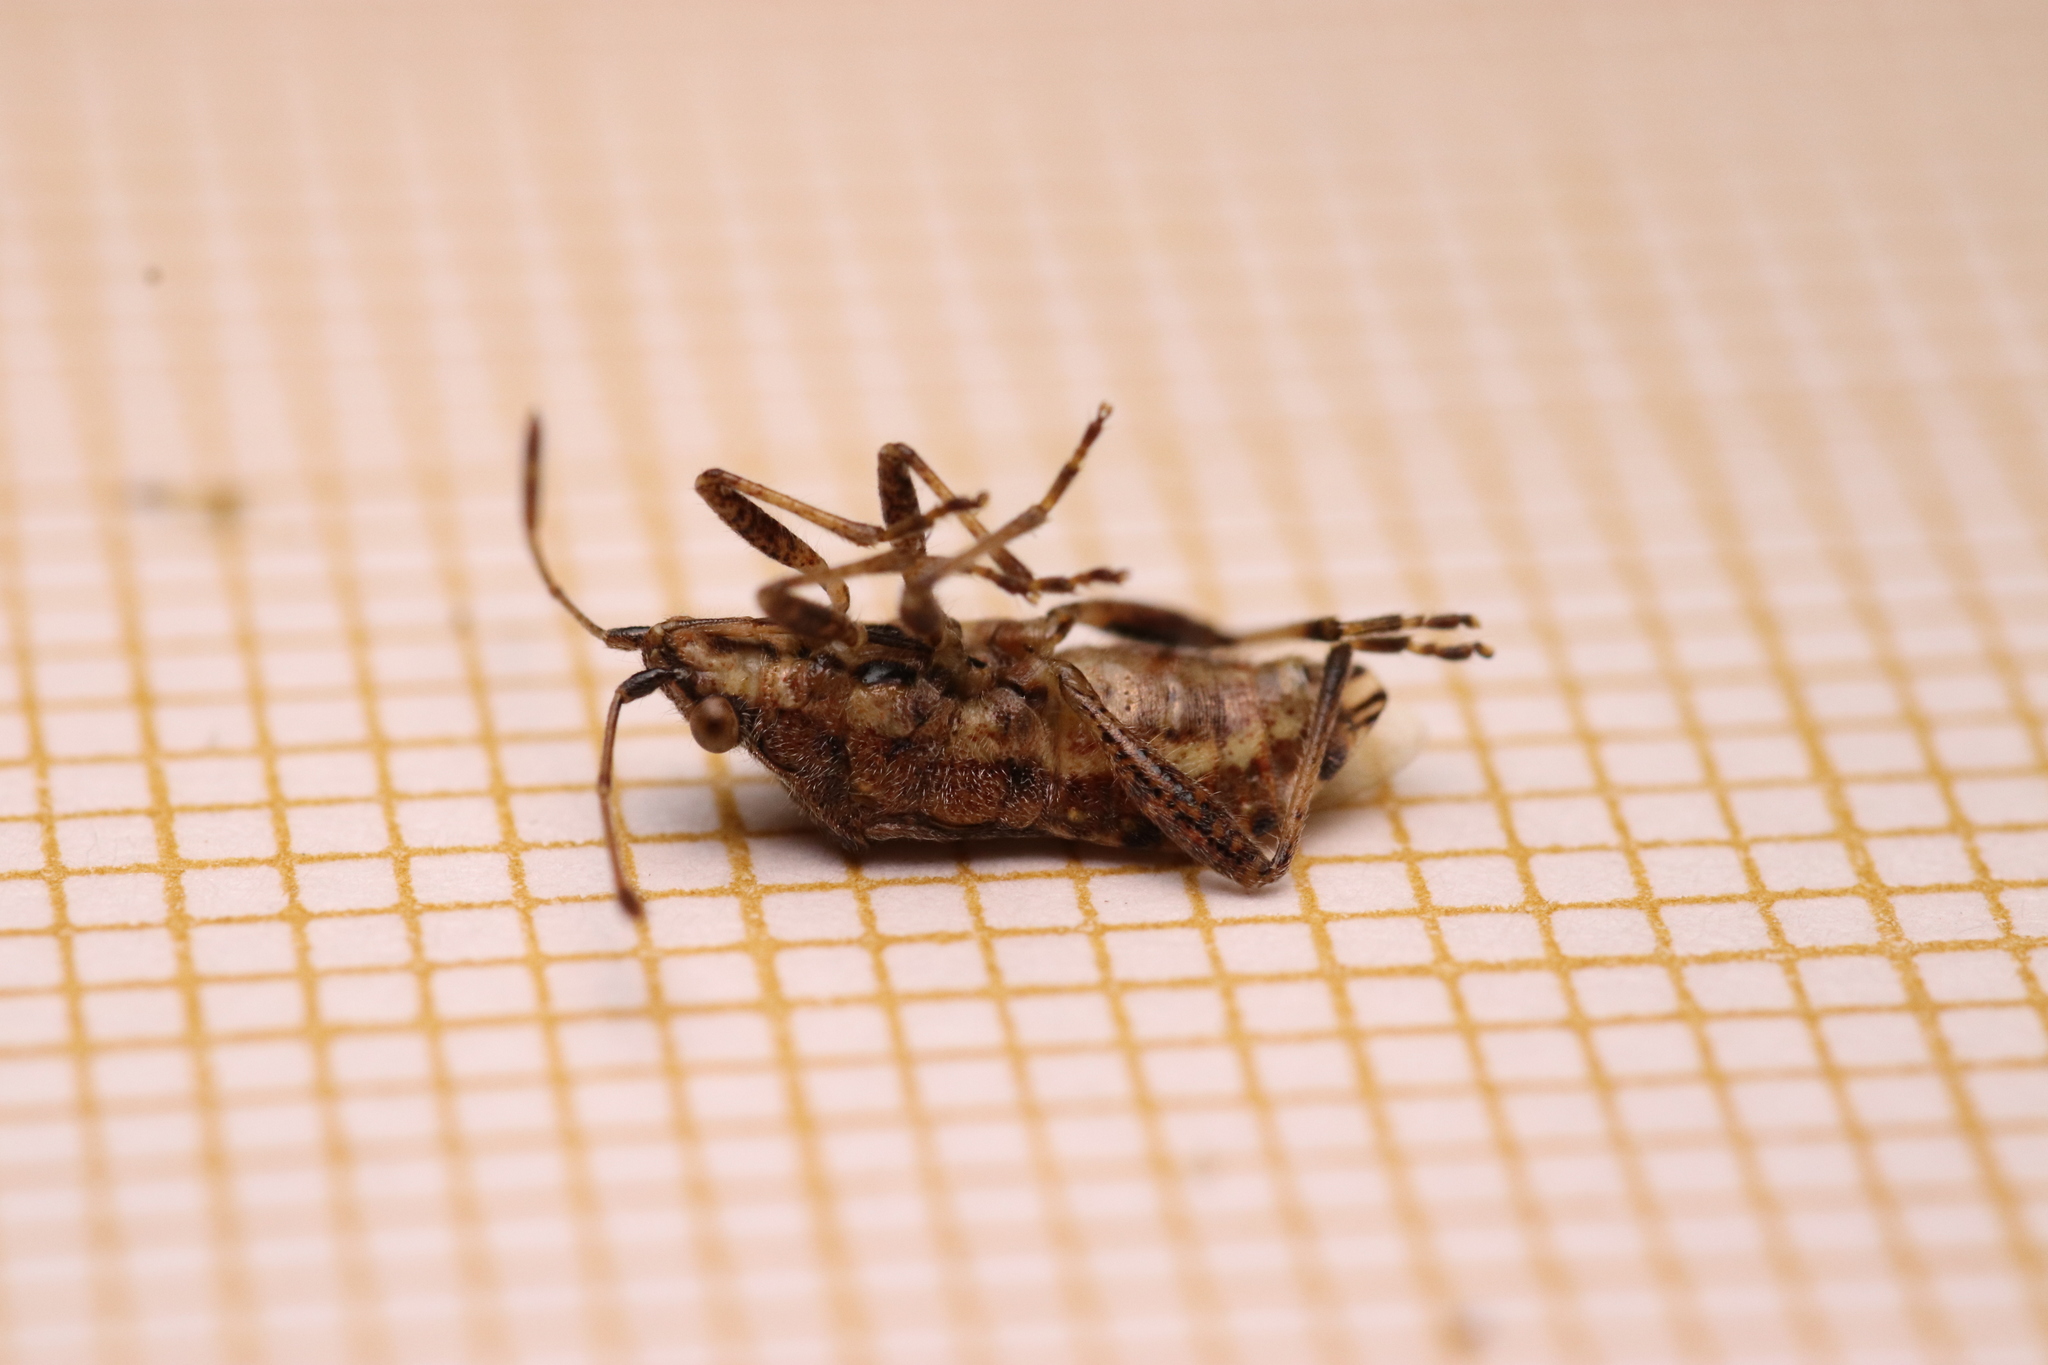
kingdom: Animalia
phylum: Arthropoda
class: Insecta
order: Hemiptera
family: Rhopalidae
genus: Stictopleurus
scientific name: Stictopleurus punctatonervosus
